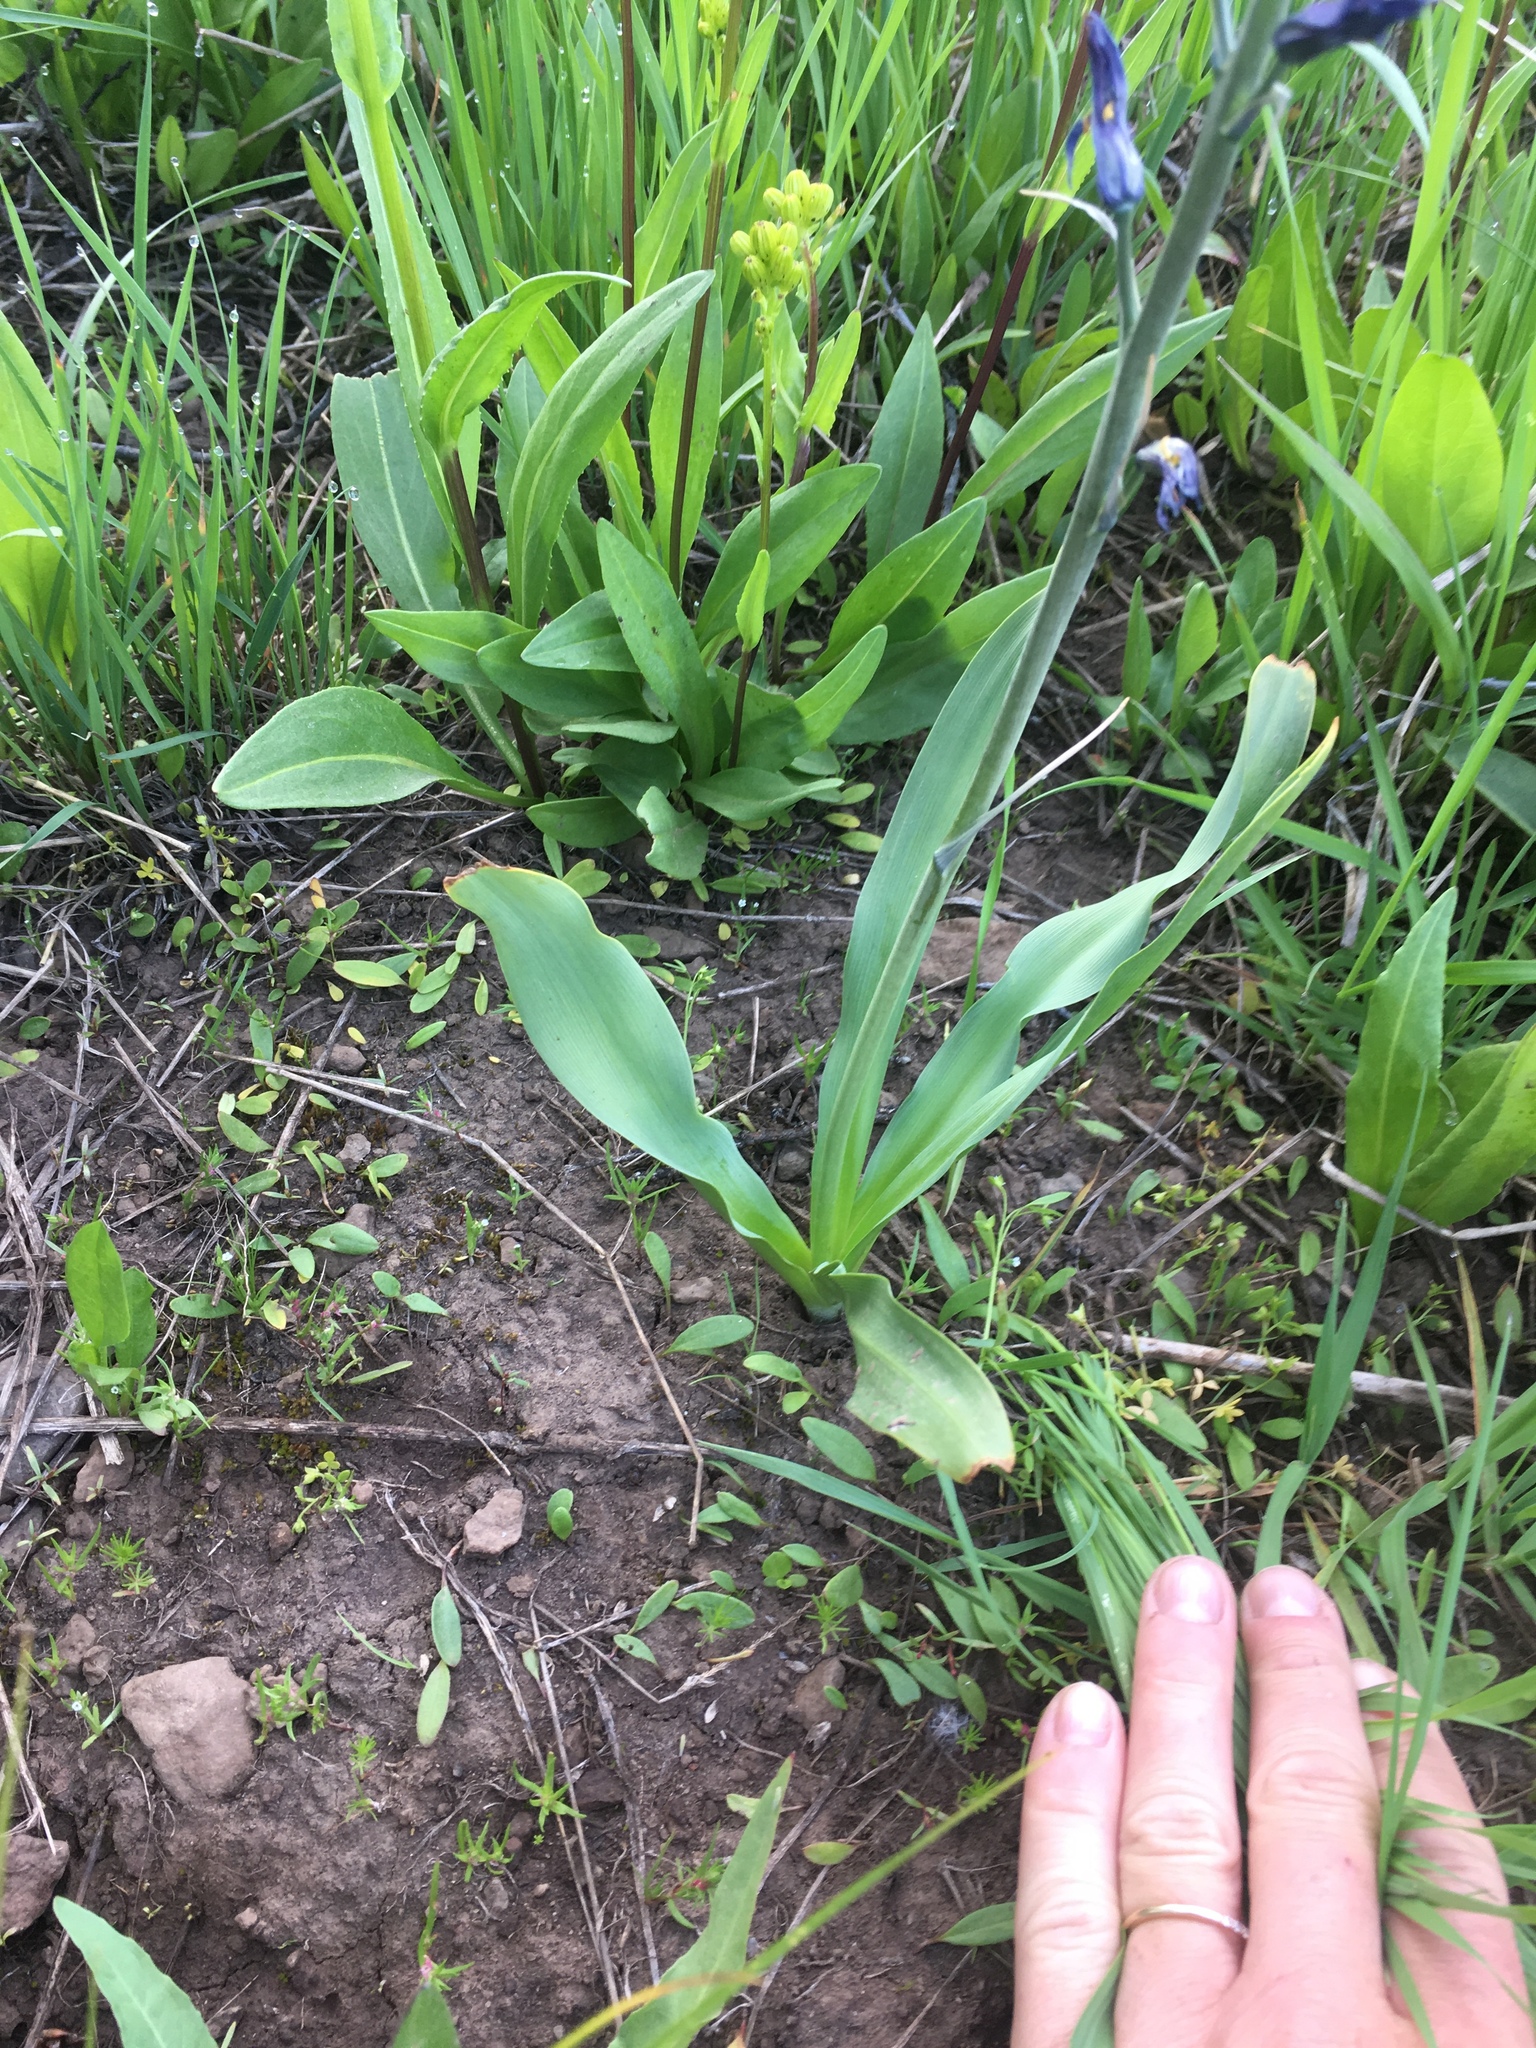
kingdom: Plantae
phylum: Tracheophyta
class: Liliopsida
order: Asparagales
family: Asparagaceae
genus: Camassia
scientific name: Camassia quamash
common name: Common camas
